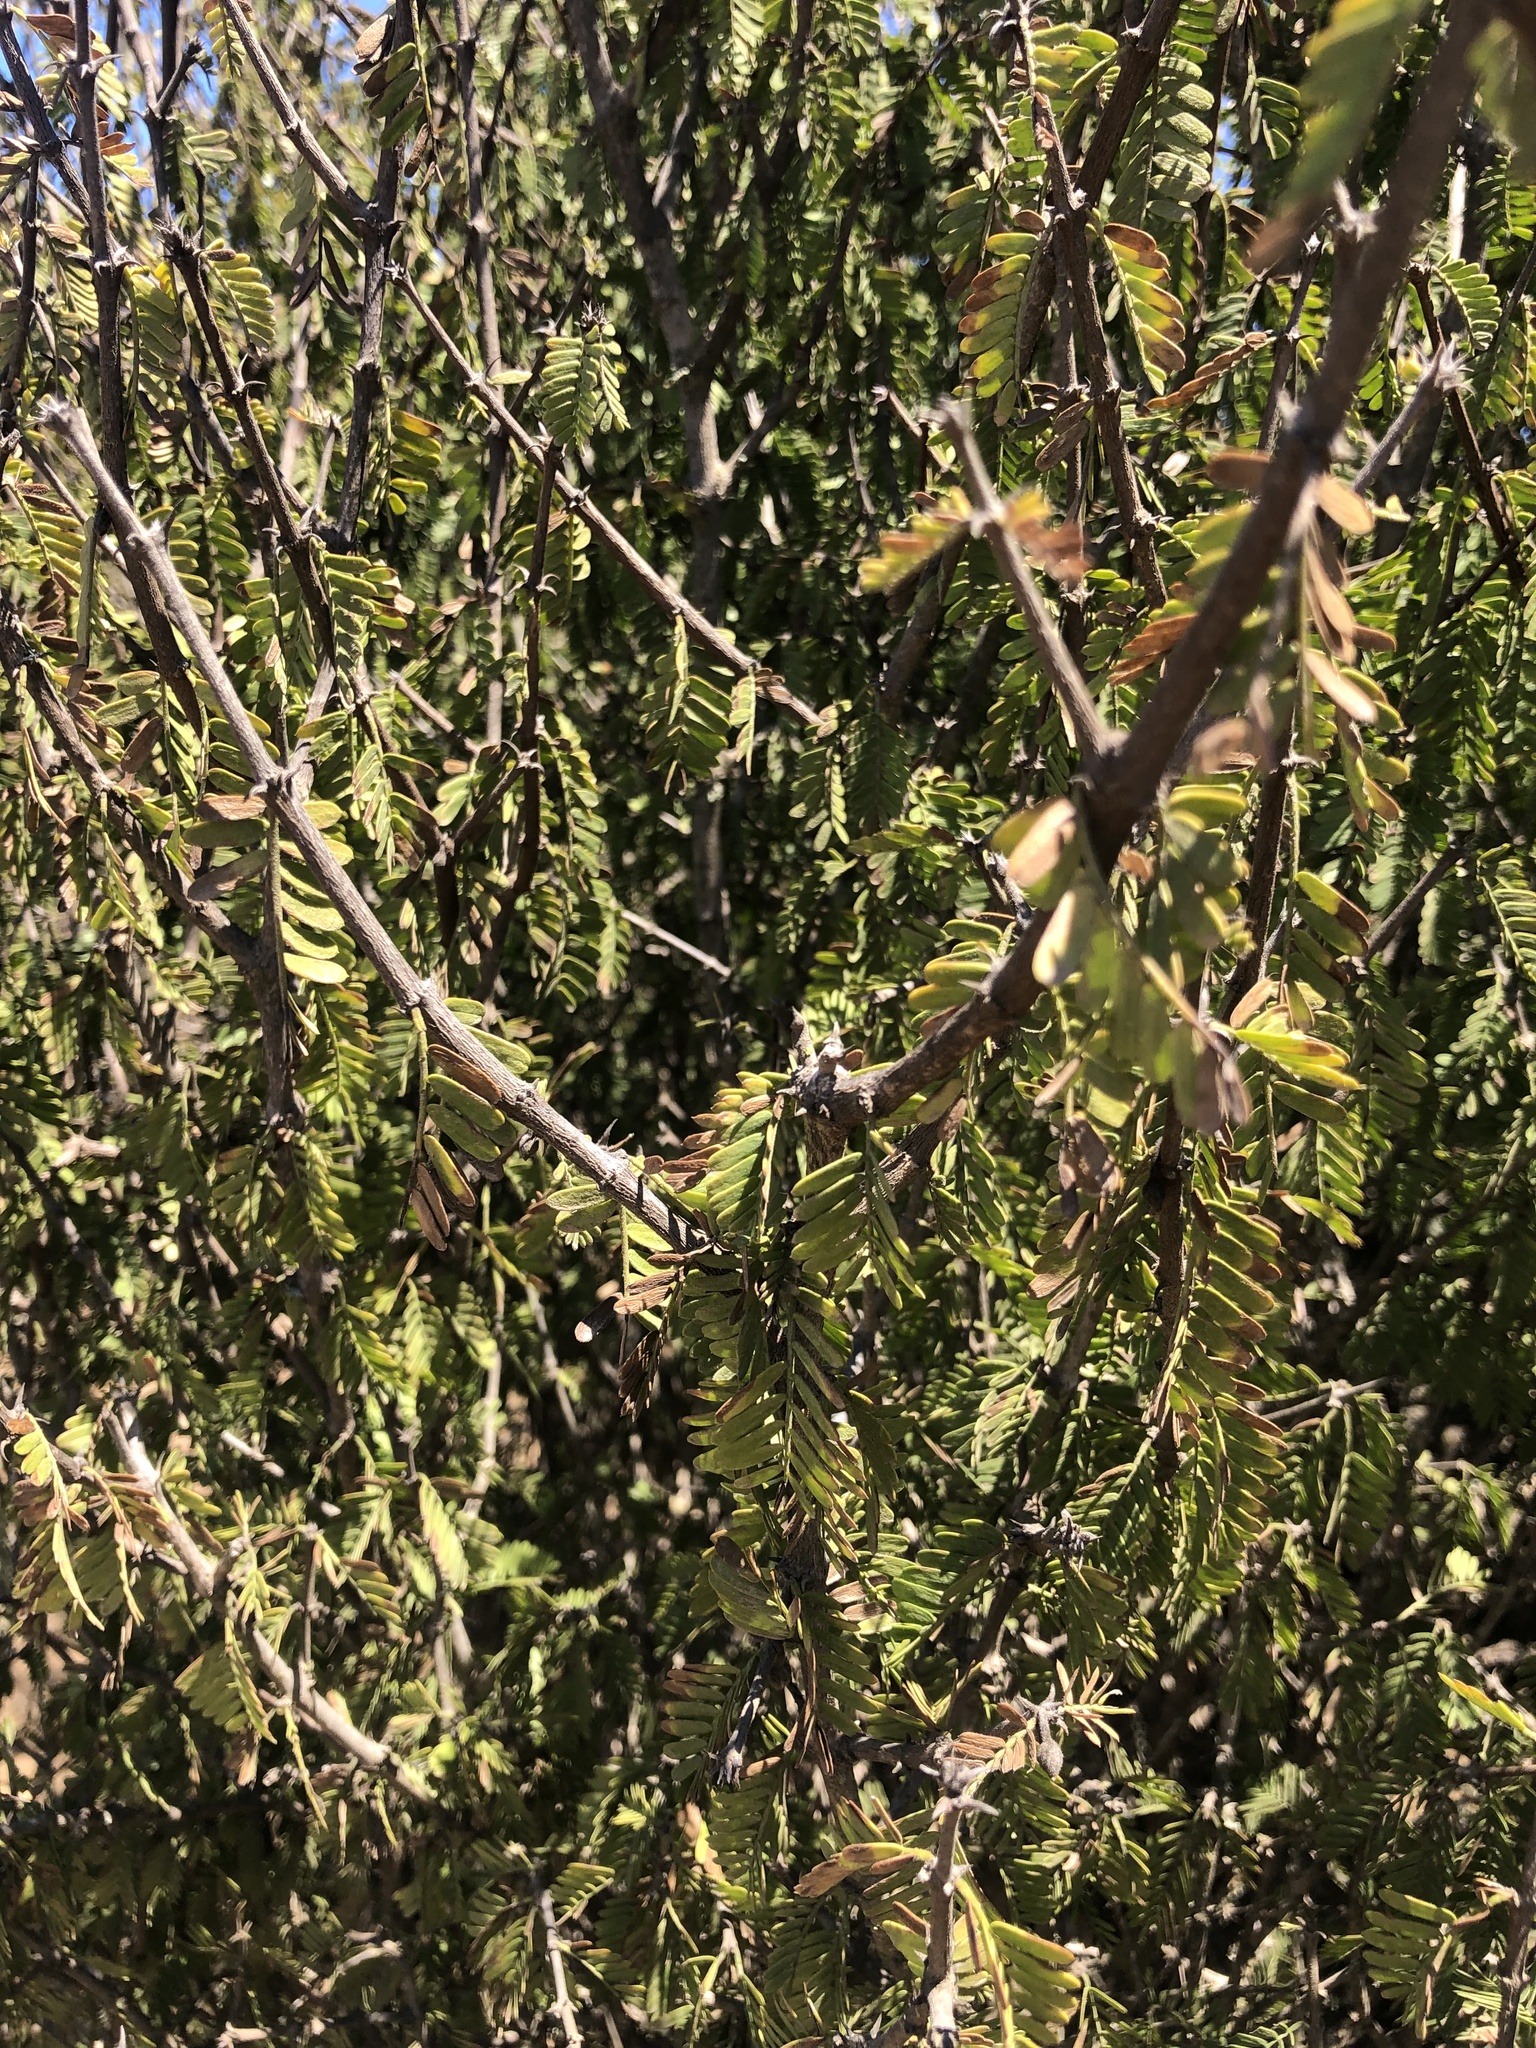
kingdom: Plantae
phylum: Tracheophyta
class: Magnoliopsida
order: Zygophyllales
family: Zygophyllaceae
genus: Porlieria
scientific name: Porlieria chilensis
